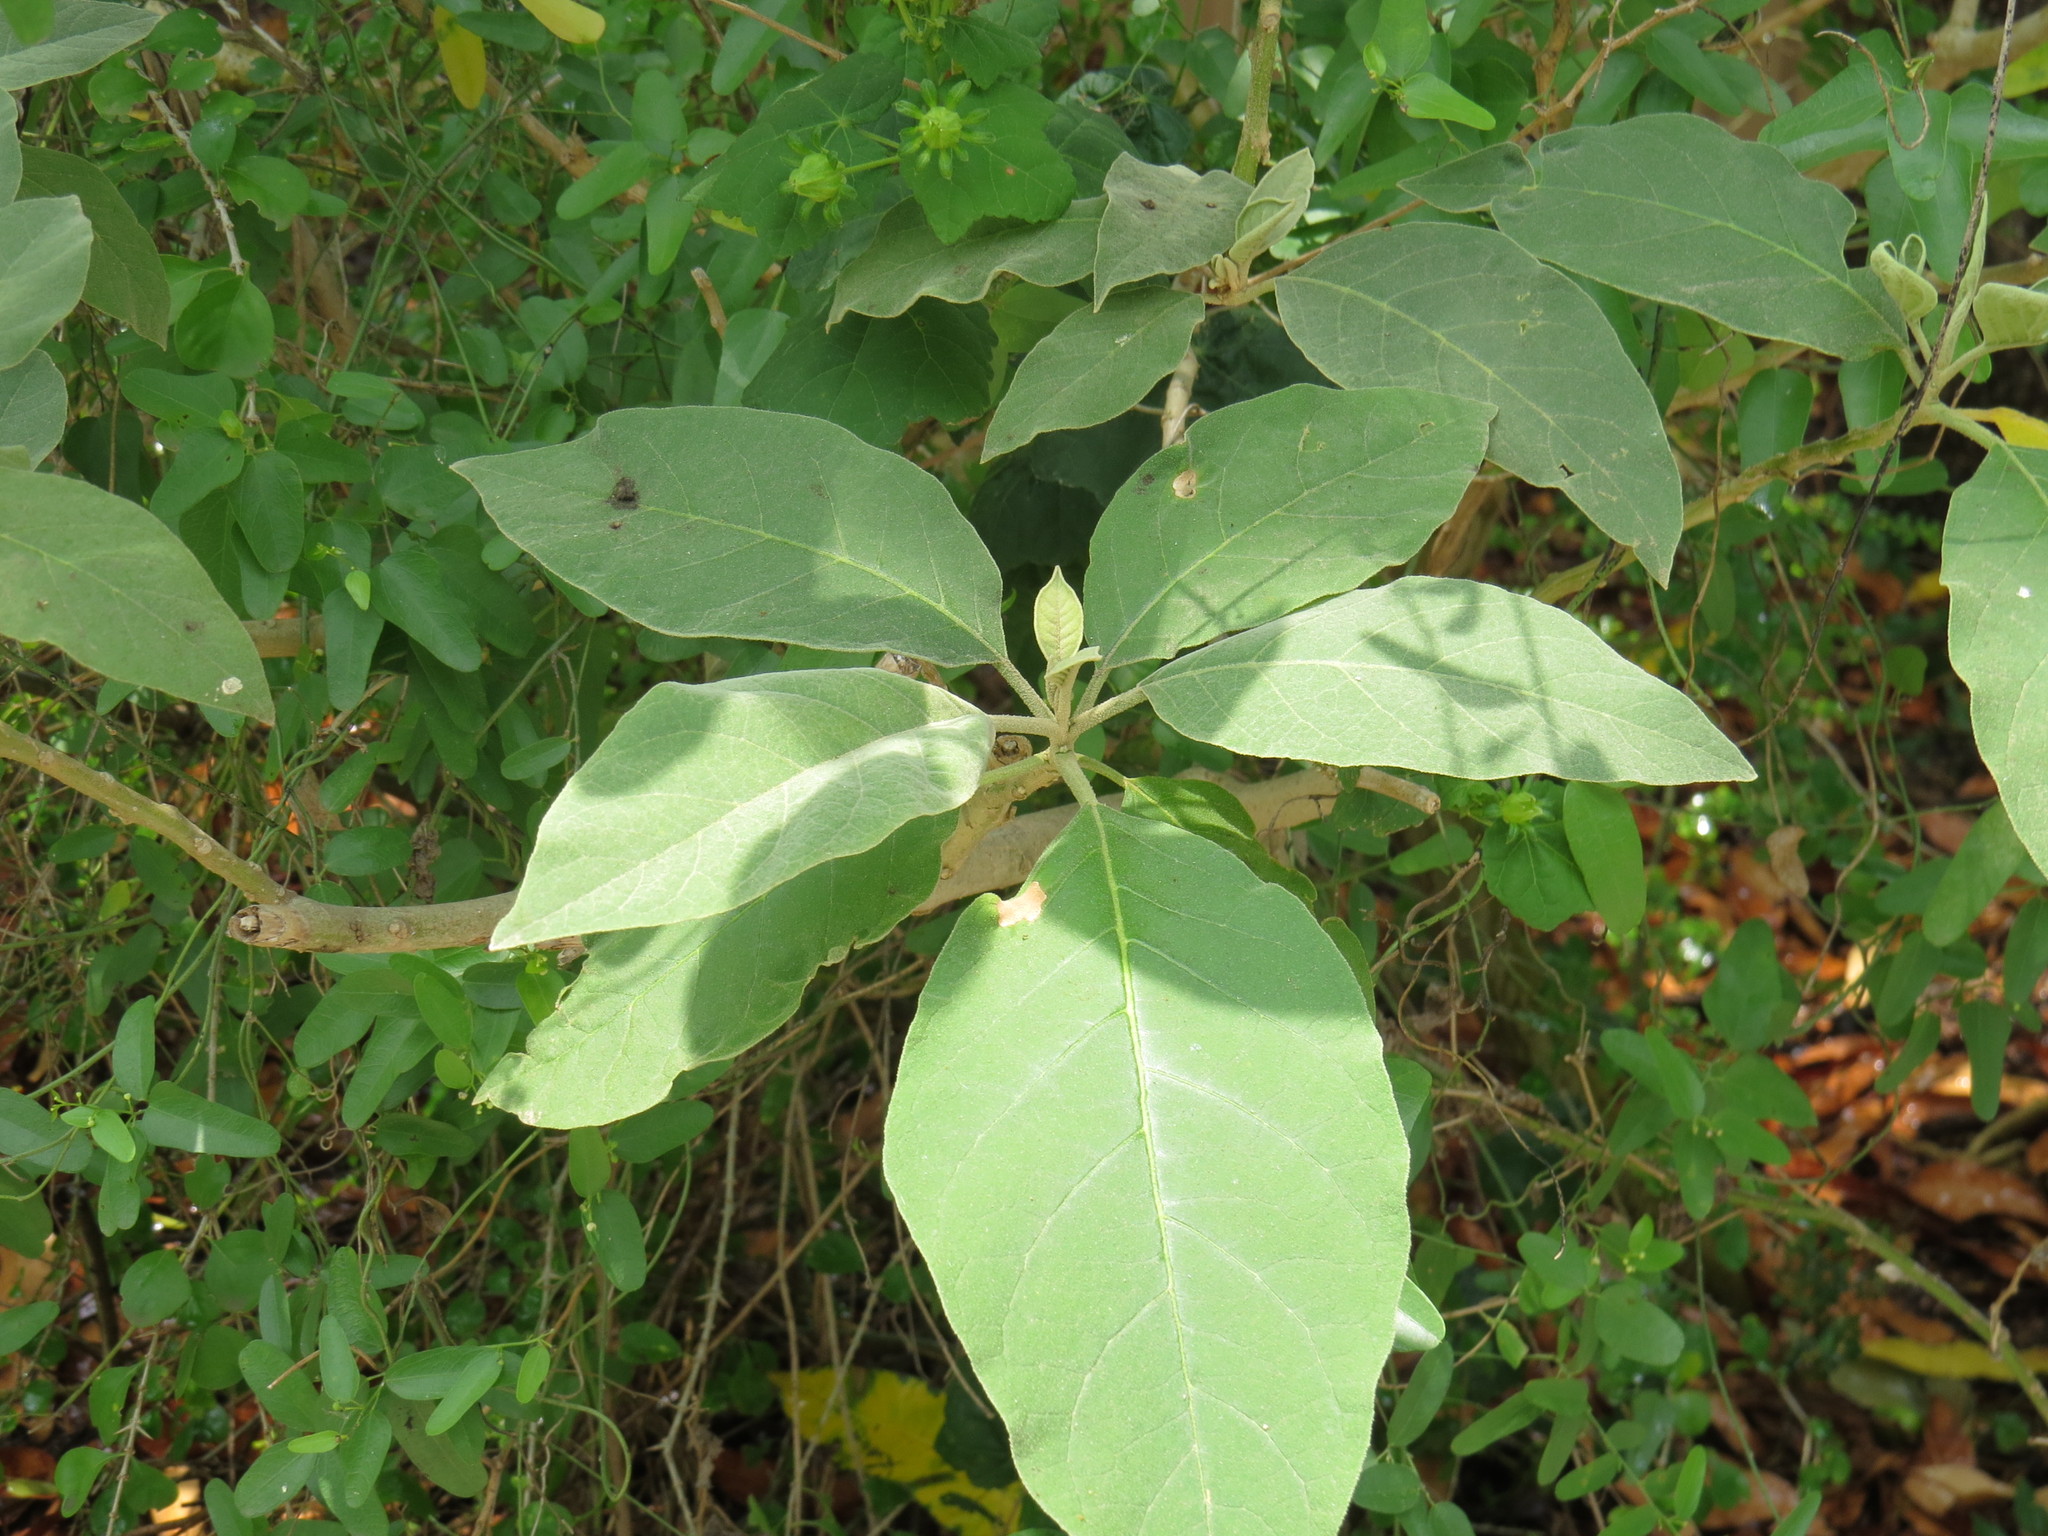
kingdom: Plantae
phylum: Tracheophyta
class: Magnoliopsida
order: Solanales
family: Solanaceae
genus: Solanum
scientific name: Solanum erianthum
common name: Tobacco-tree
